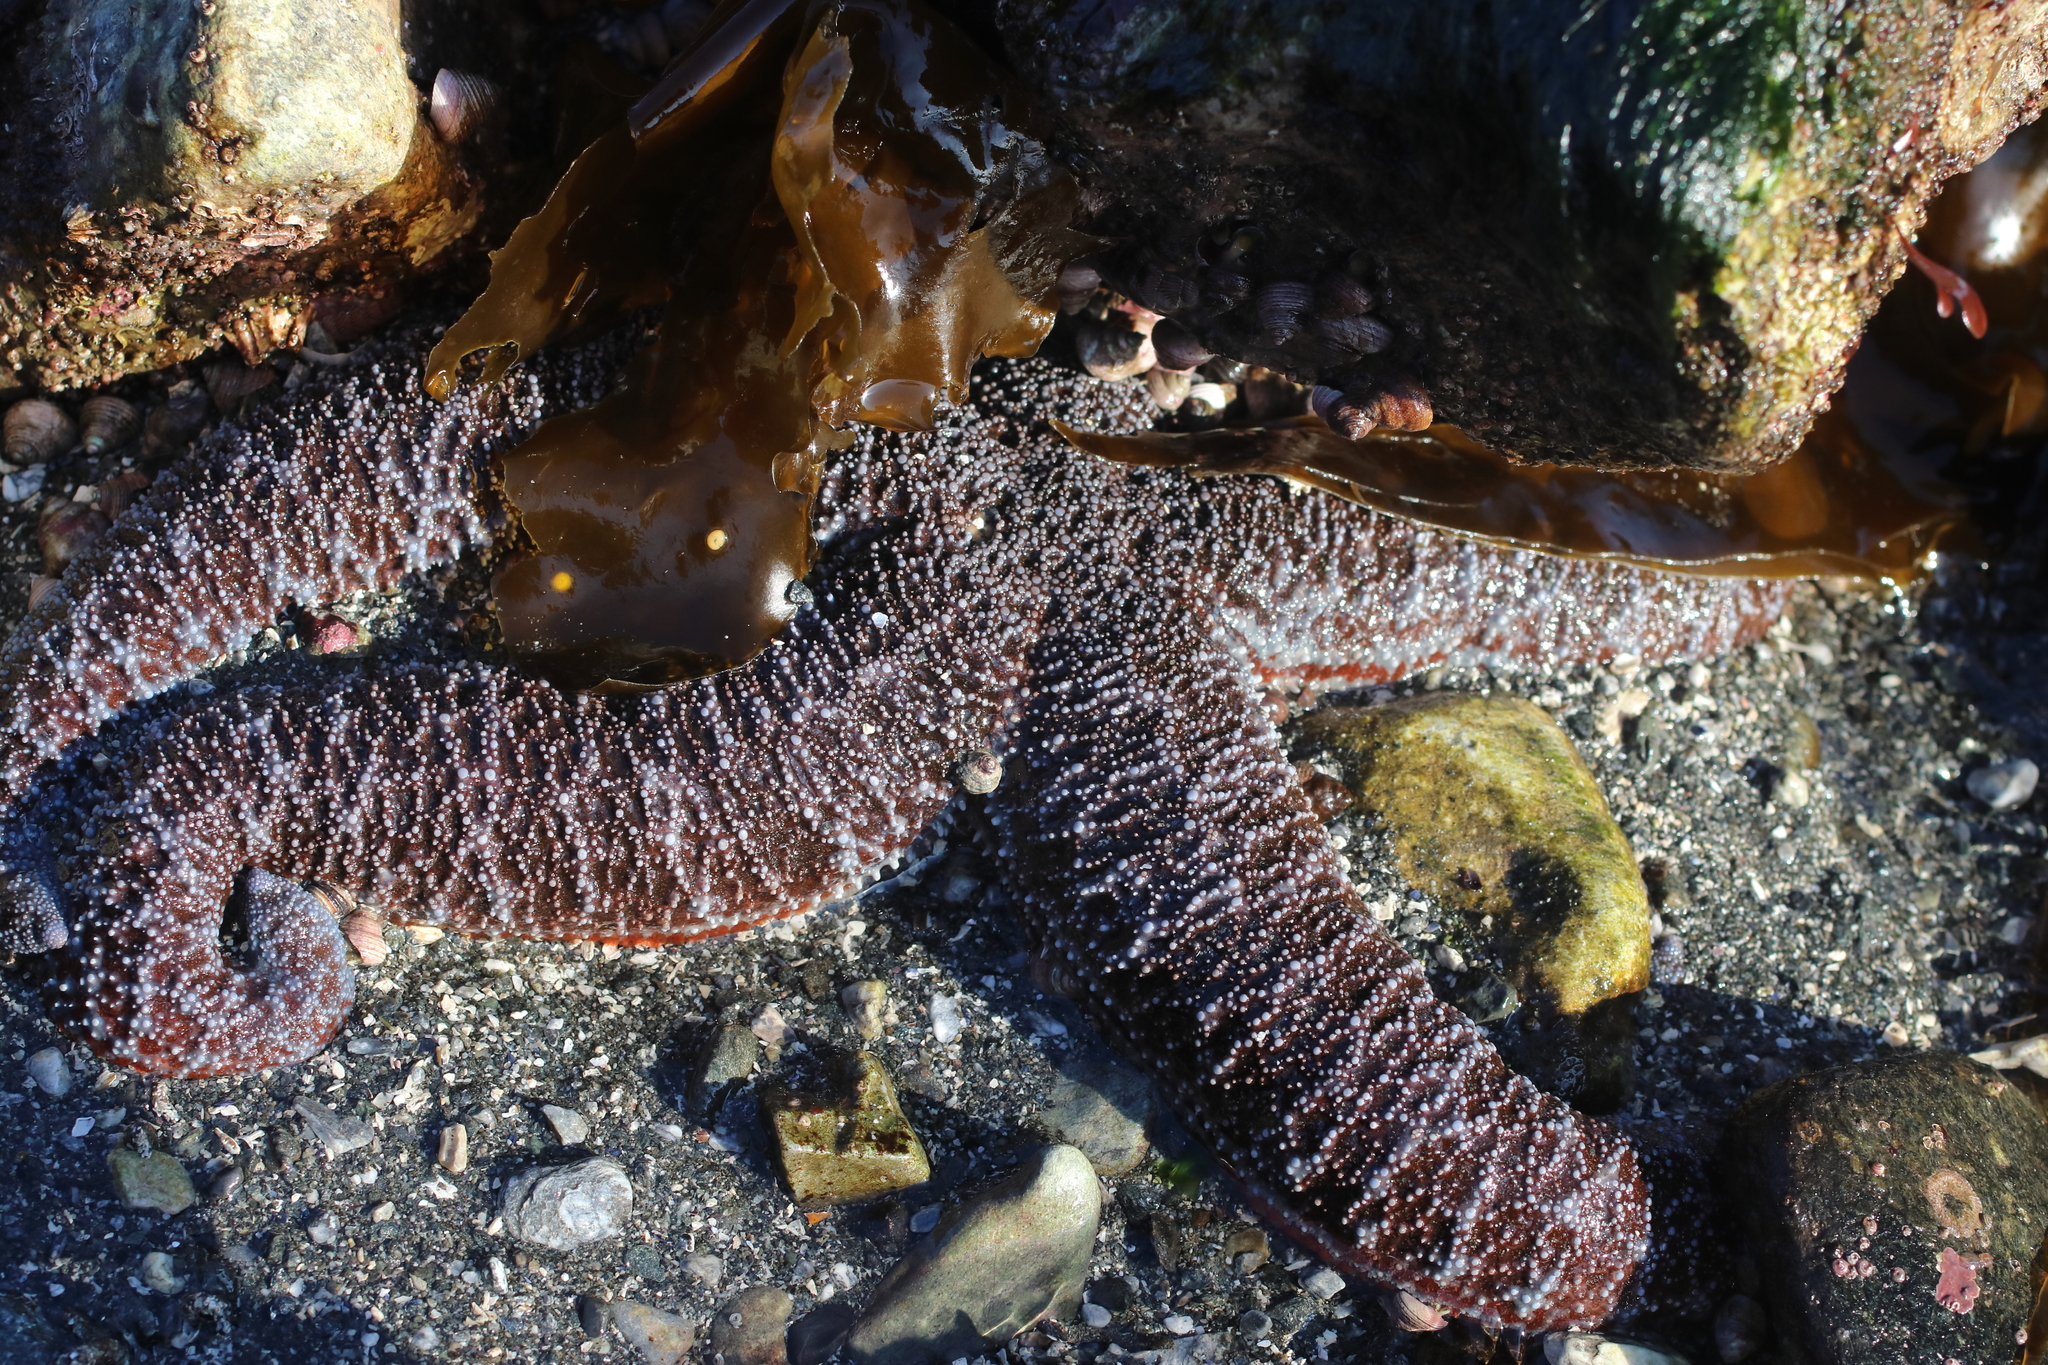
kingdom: Animalia
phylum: Echinodermata
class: Asteroidea
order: Forcipulatida
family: Asteriidae
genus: Evasterias
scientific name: Evasterias troschelii
